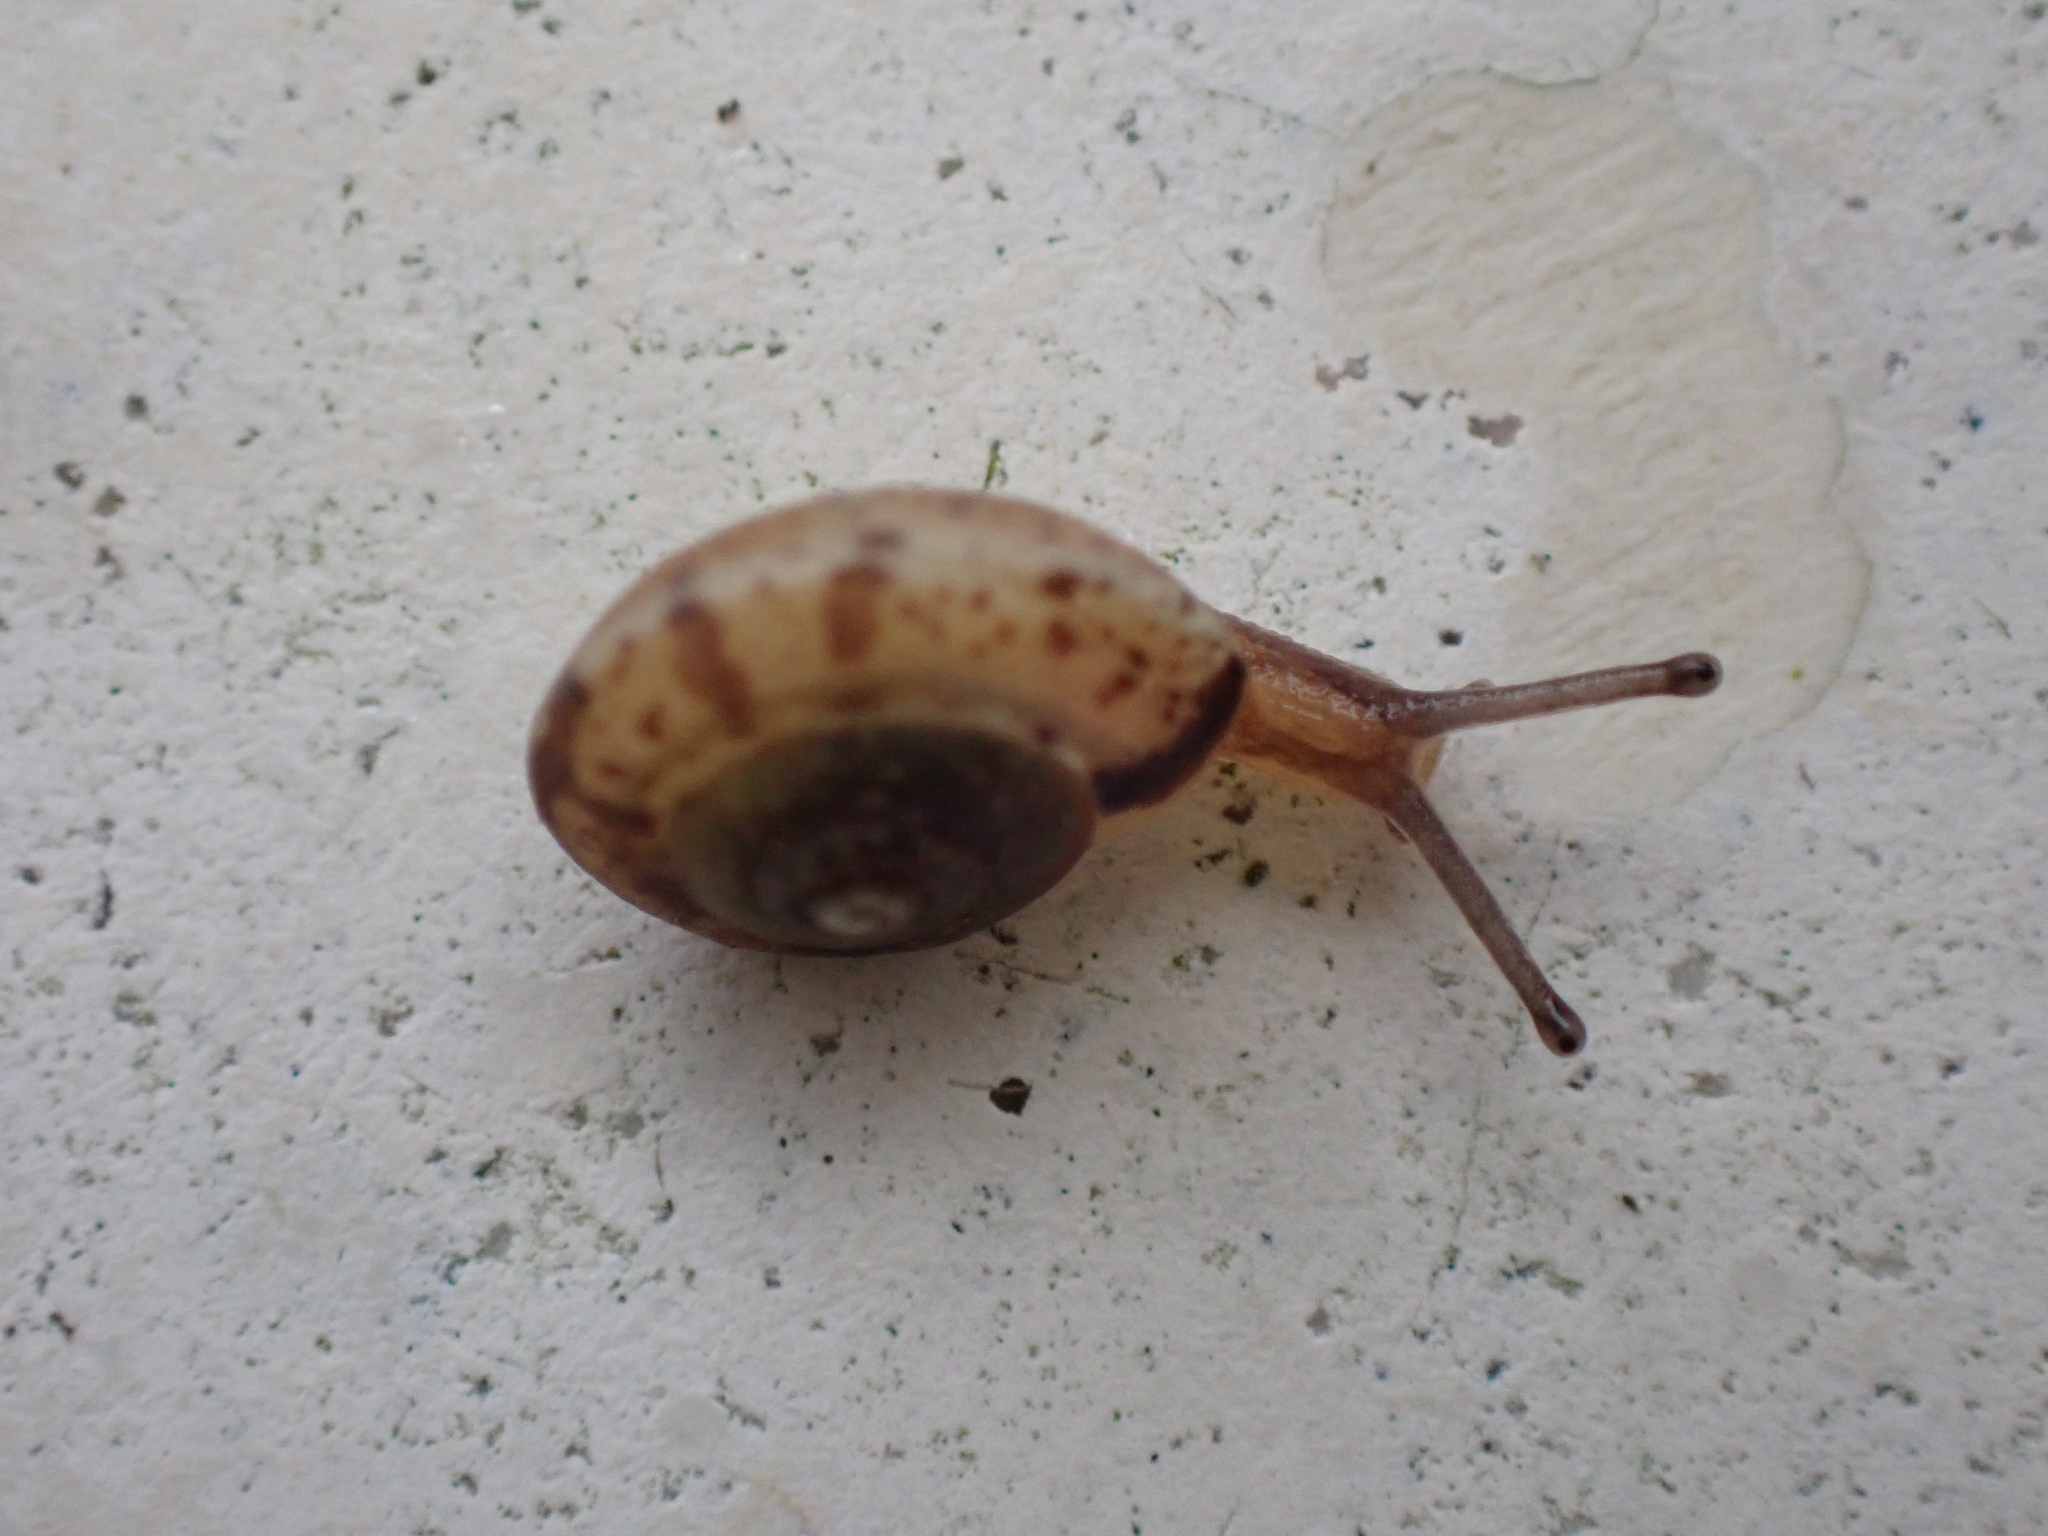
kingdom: Animalia
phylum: Mollusca
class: Gastropoda
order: Stylommatophora
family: Hygromiidae
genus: Hygromia
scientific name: Hygromia cinctella
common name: Girdled snail
